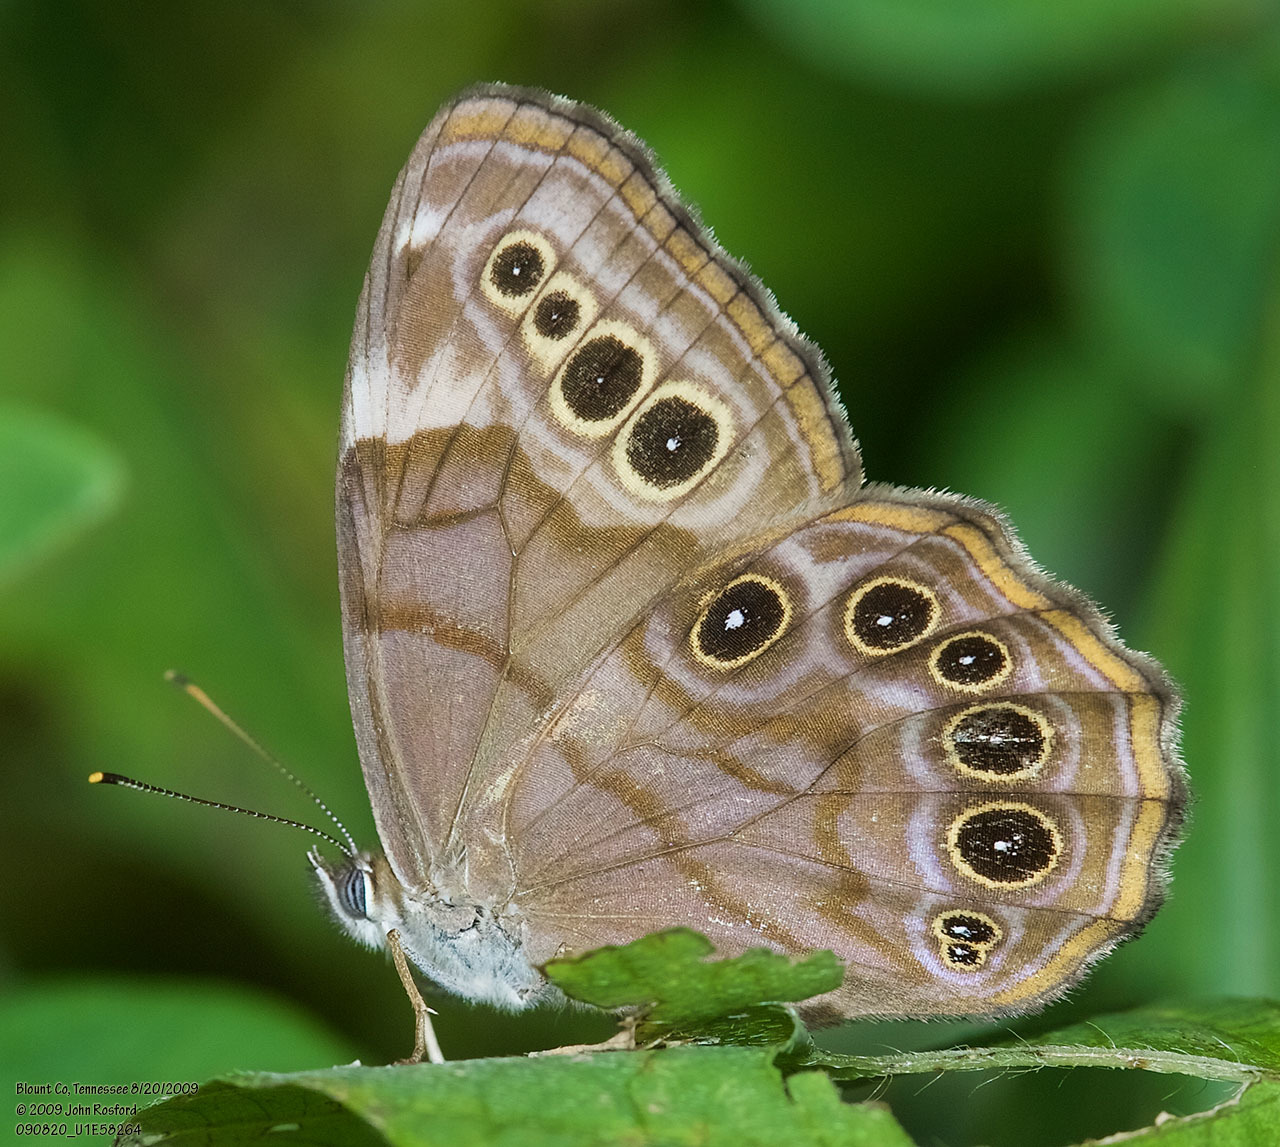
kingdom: Animalia
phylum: Arthropoda
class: Insecta
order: Lepidoptera
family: Nymphalidae
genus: Lethe
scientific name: Lethe anthedon
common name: Northern pearly-eye
